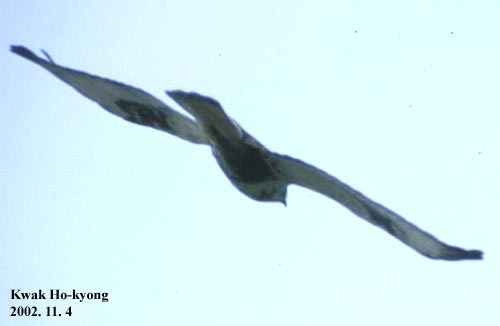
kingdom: Animalia
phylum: Chordata
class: Aves
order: Accipitriformes
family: Accipitridae
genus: Buteo
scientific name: Buteo lagopus
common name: Rough-legged buzzard
